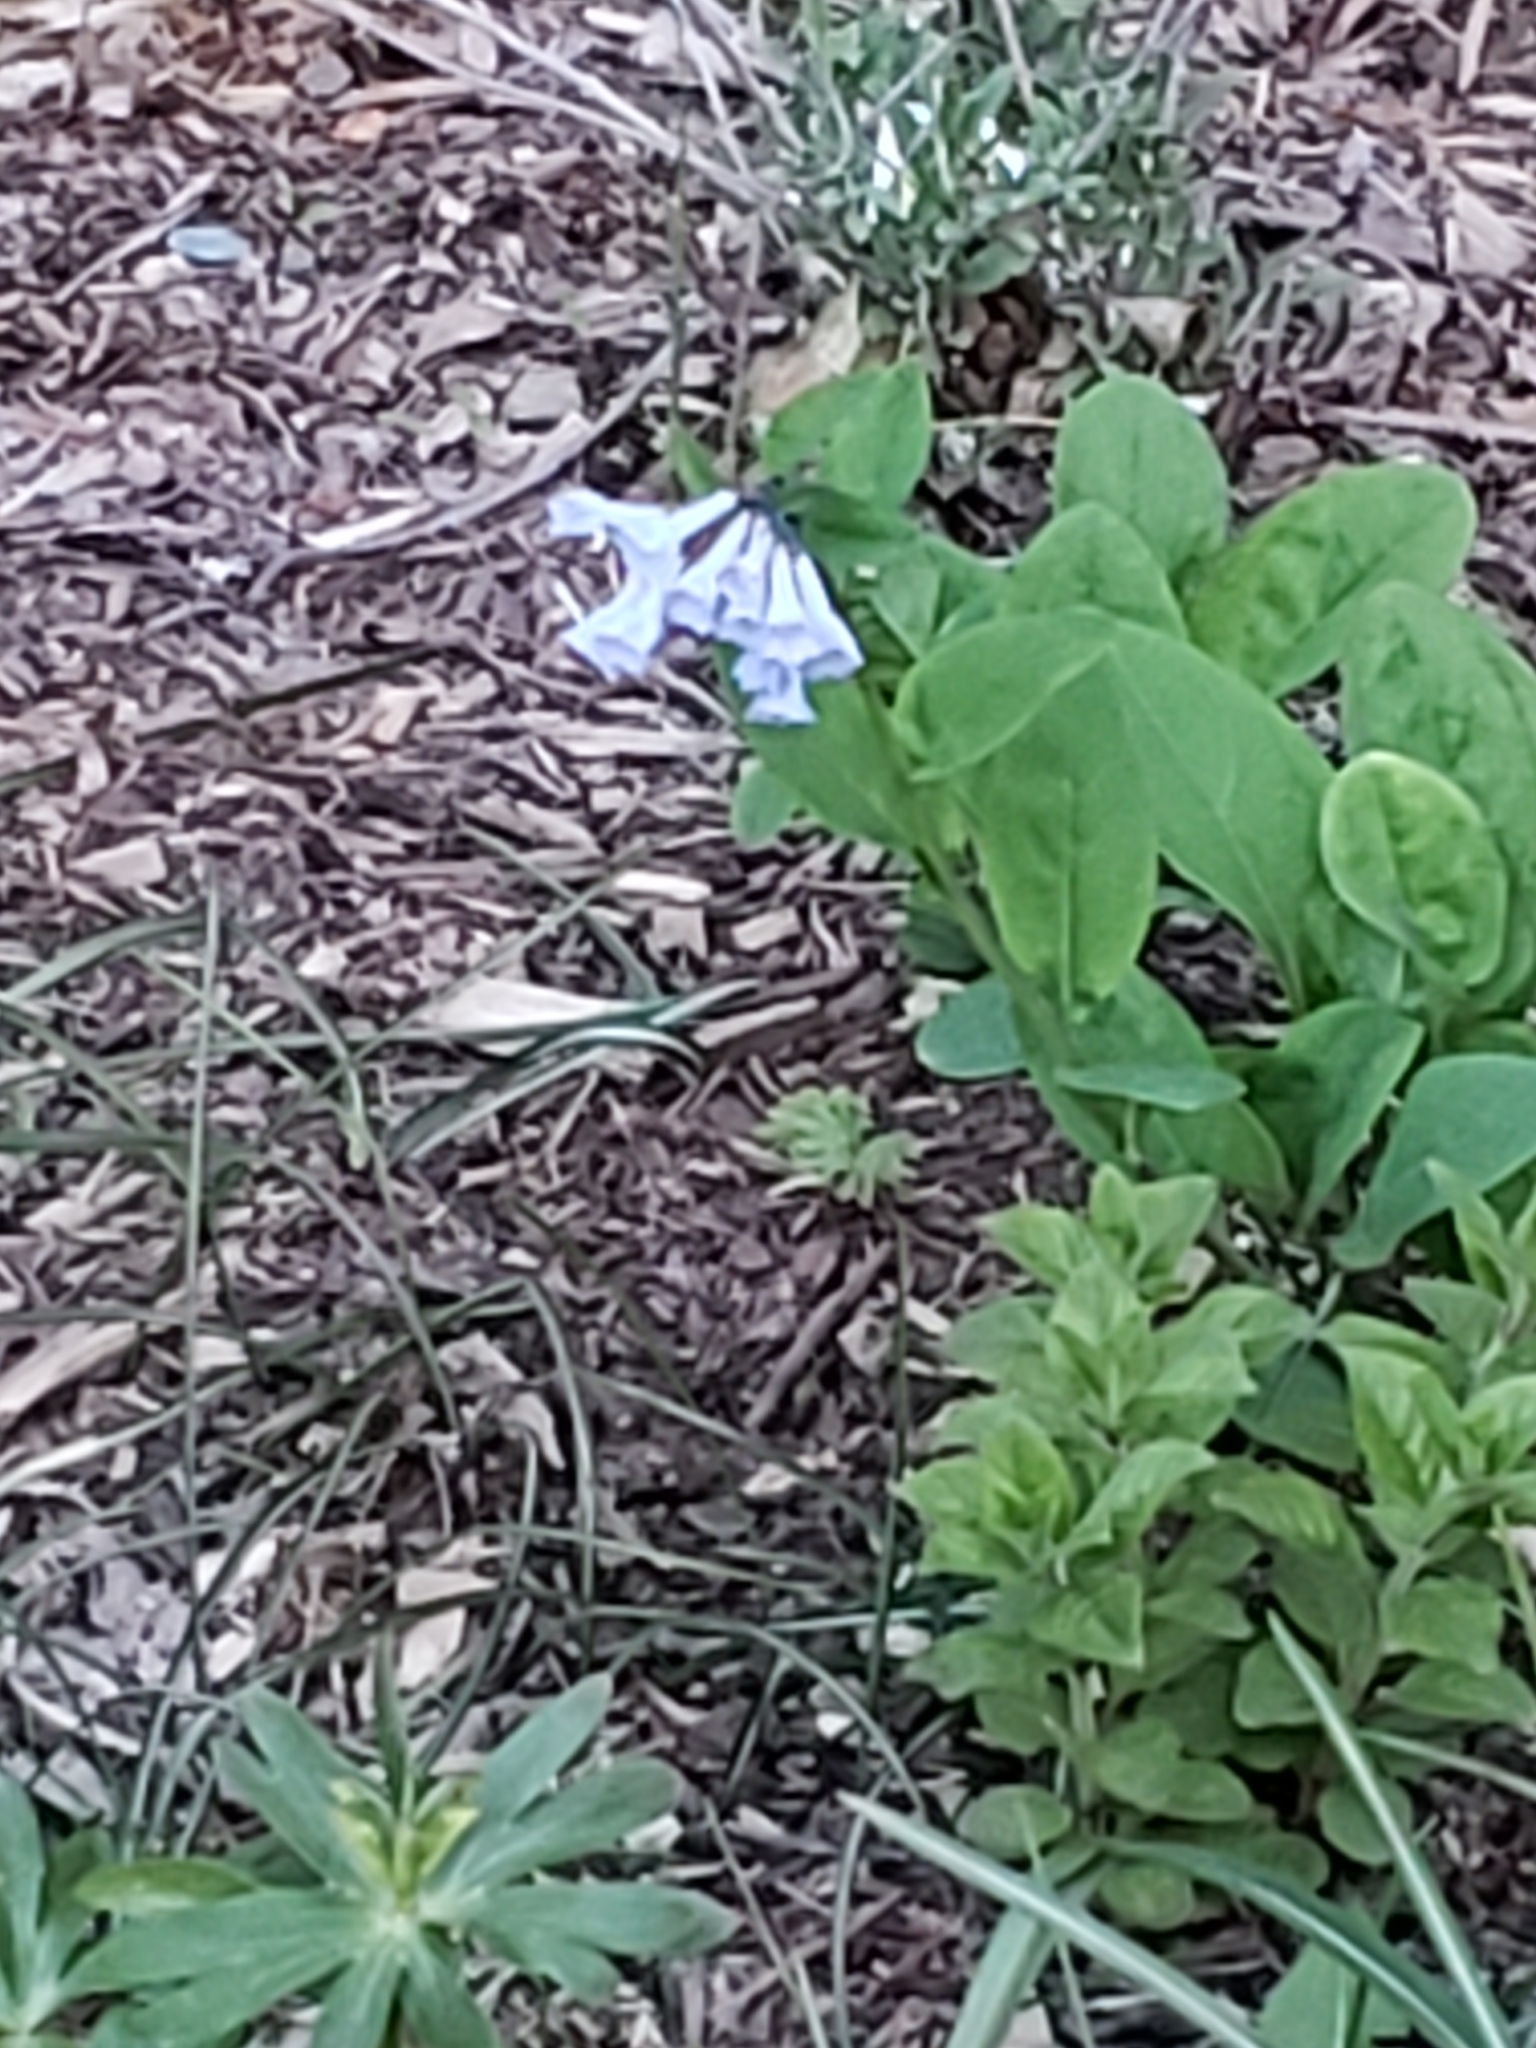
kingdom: Plantae
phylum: Tracheophyta
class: Magnoliopsida
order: Boraginales
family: Boraginaceae
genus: Mertensia
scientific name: Mertensia virginica
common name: Virginia bluebells
